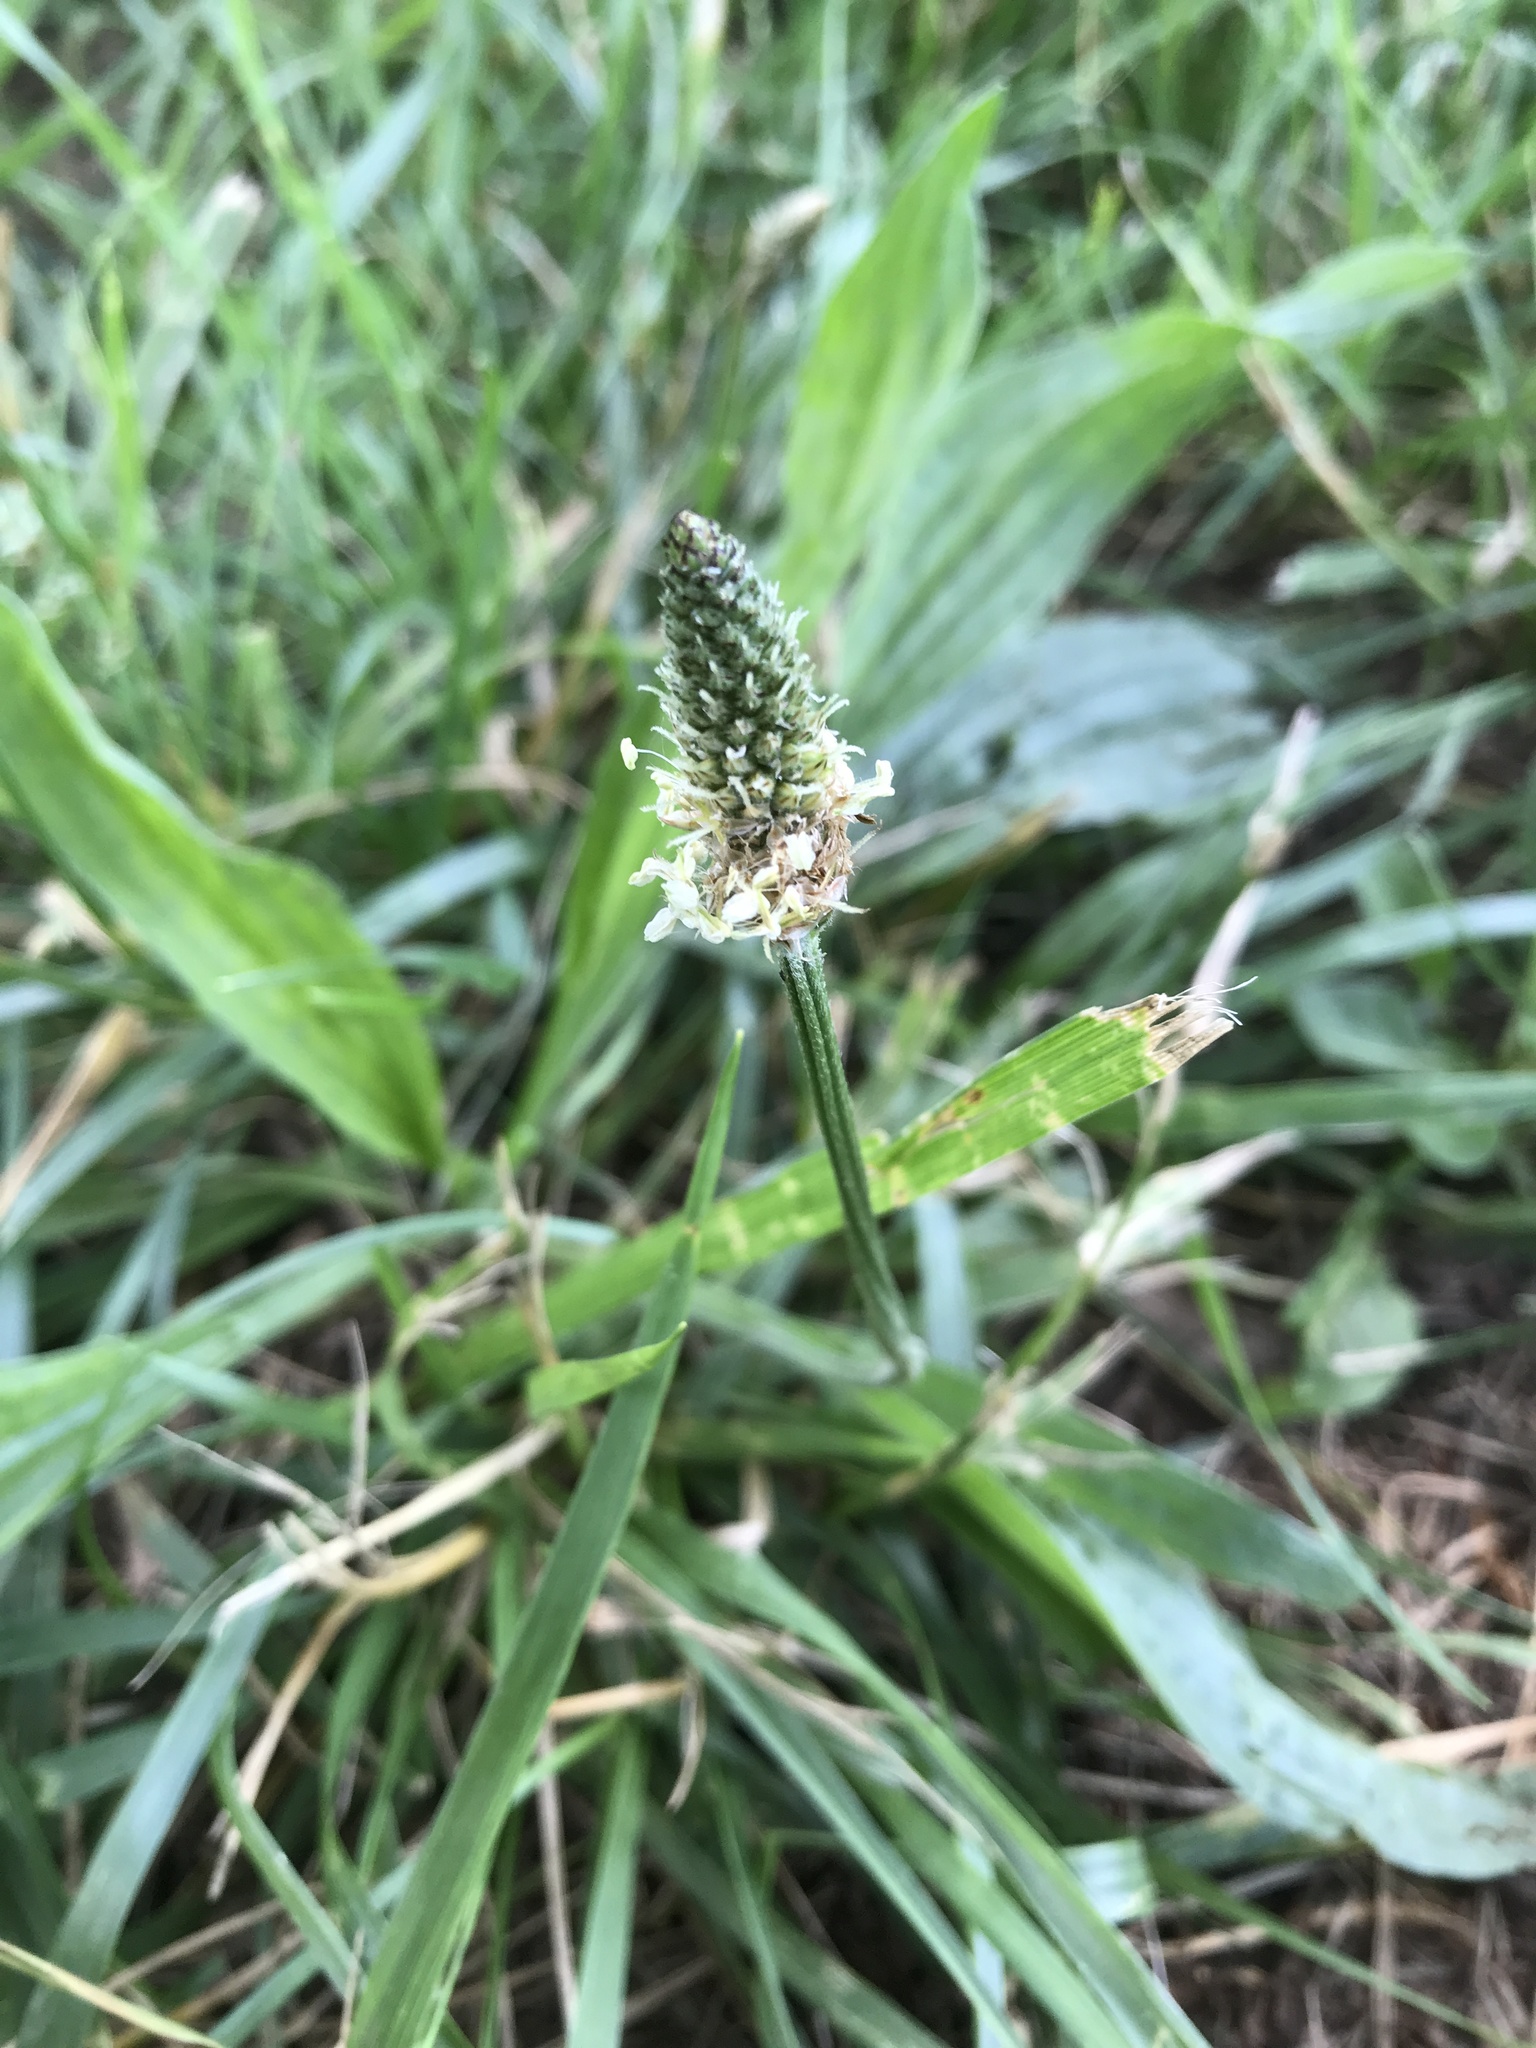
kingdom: Plantae
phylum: Tracheophyta
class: Magnoliopsida
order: Lamiales
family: Plantaginaceae
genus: Plantago
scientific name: Plantago lanceolata
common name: Ribwort plantain
